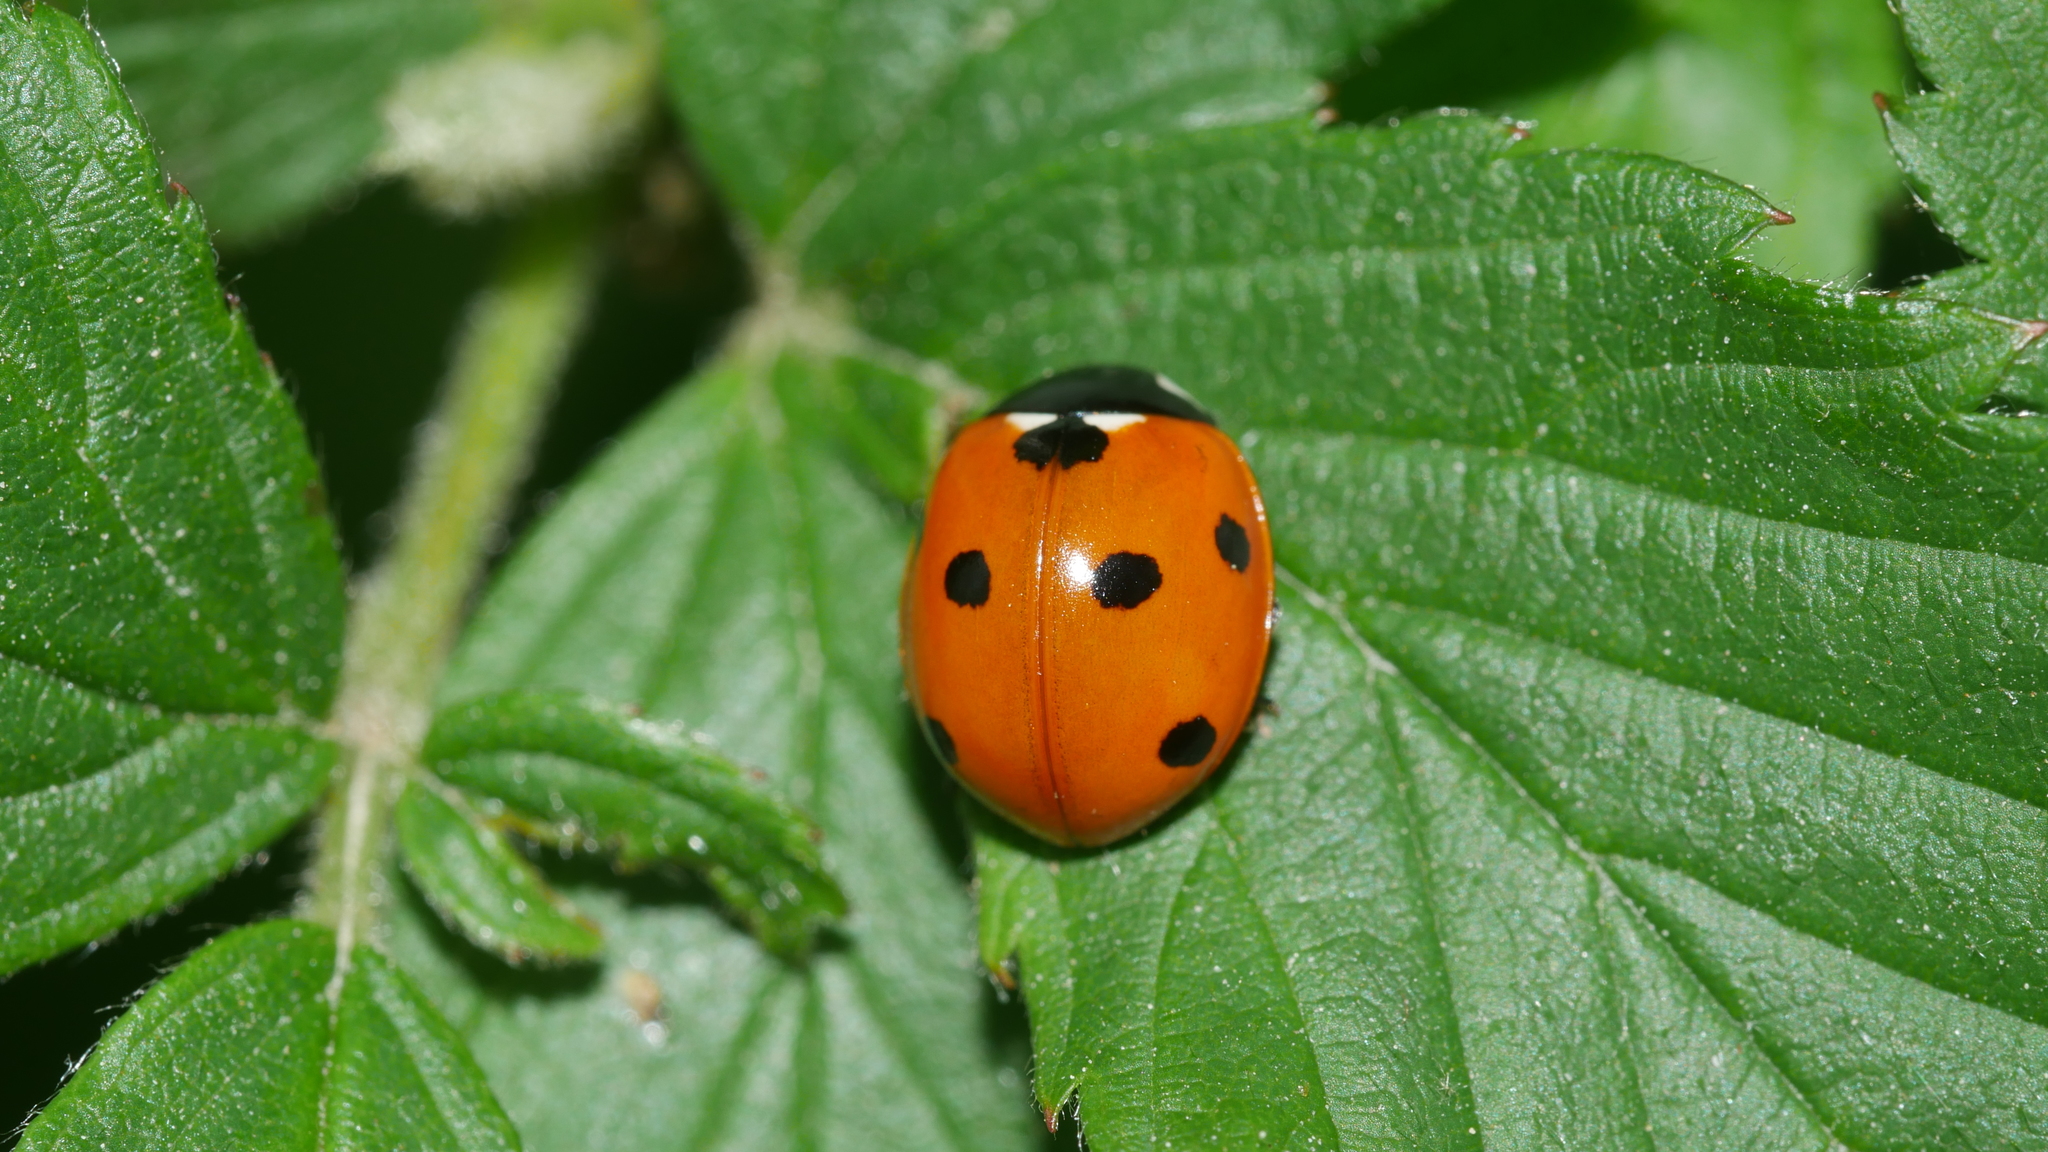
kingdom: Animalia
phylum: Arthropoda
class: Insecta
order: Coleoptera
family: Coccinellidae
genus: Coccinella
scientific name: Coccinella septempunctata
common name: Sevenspotted lady beetle
